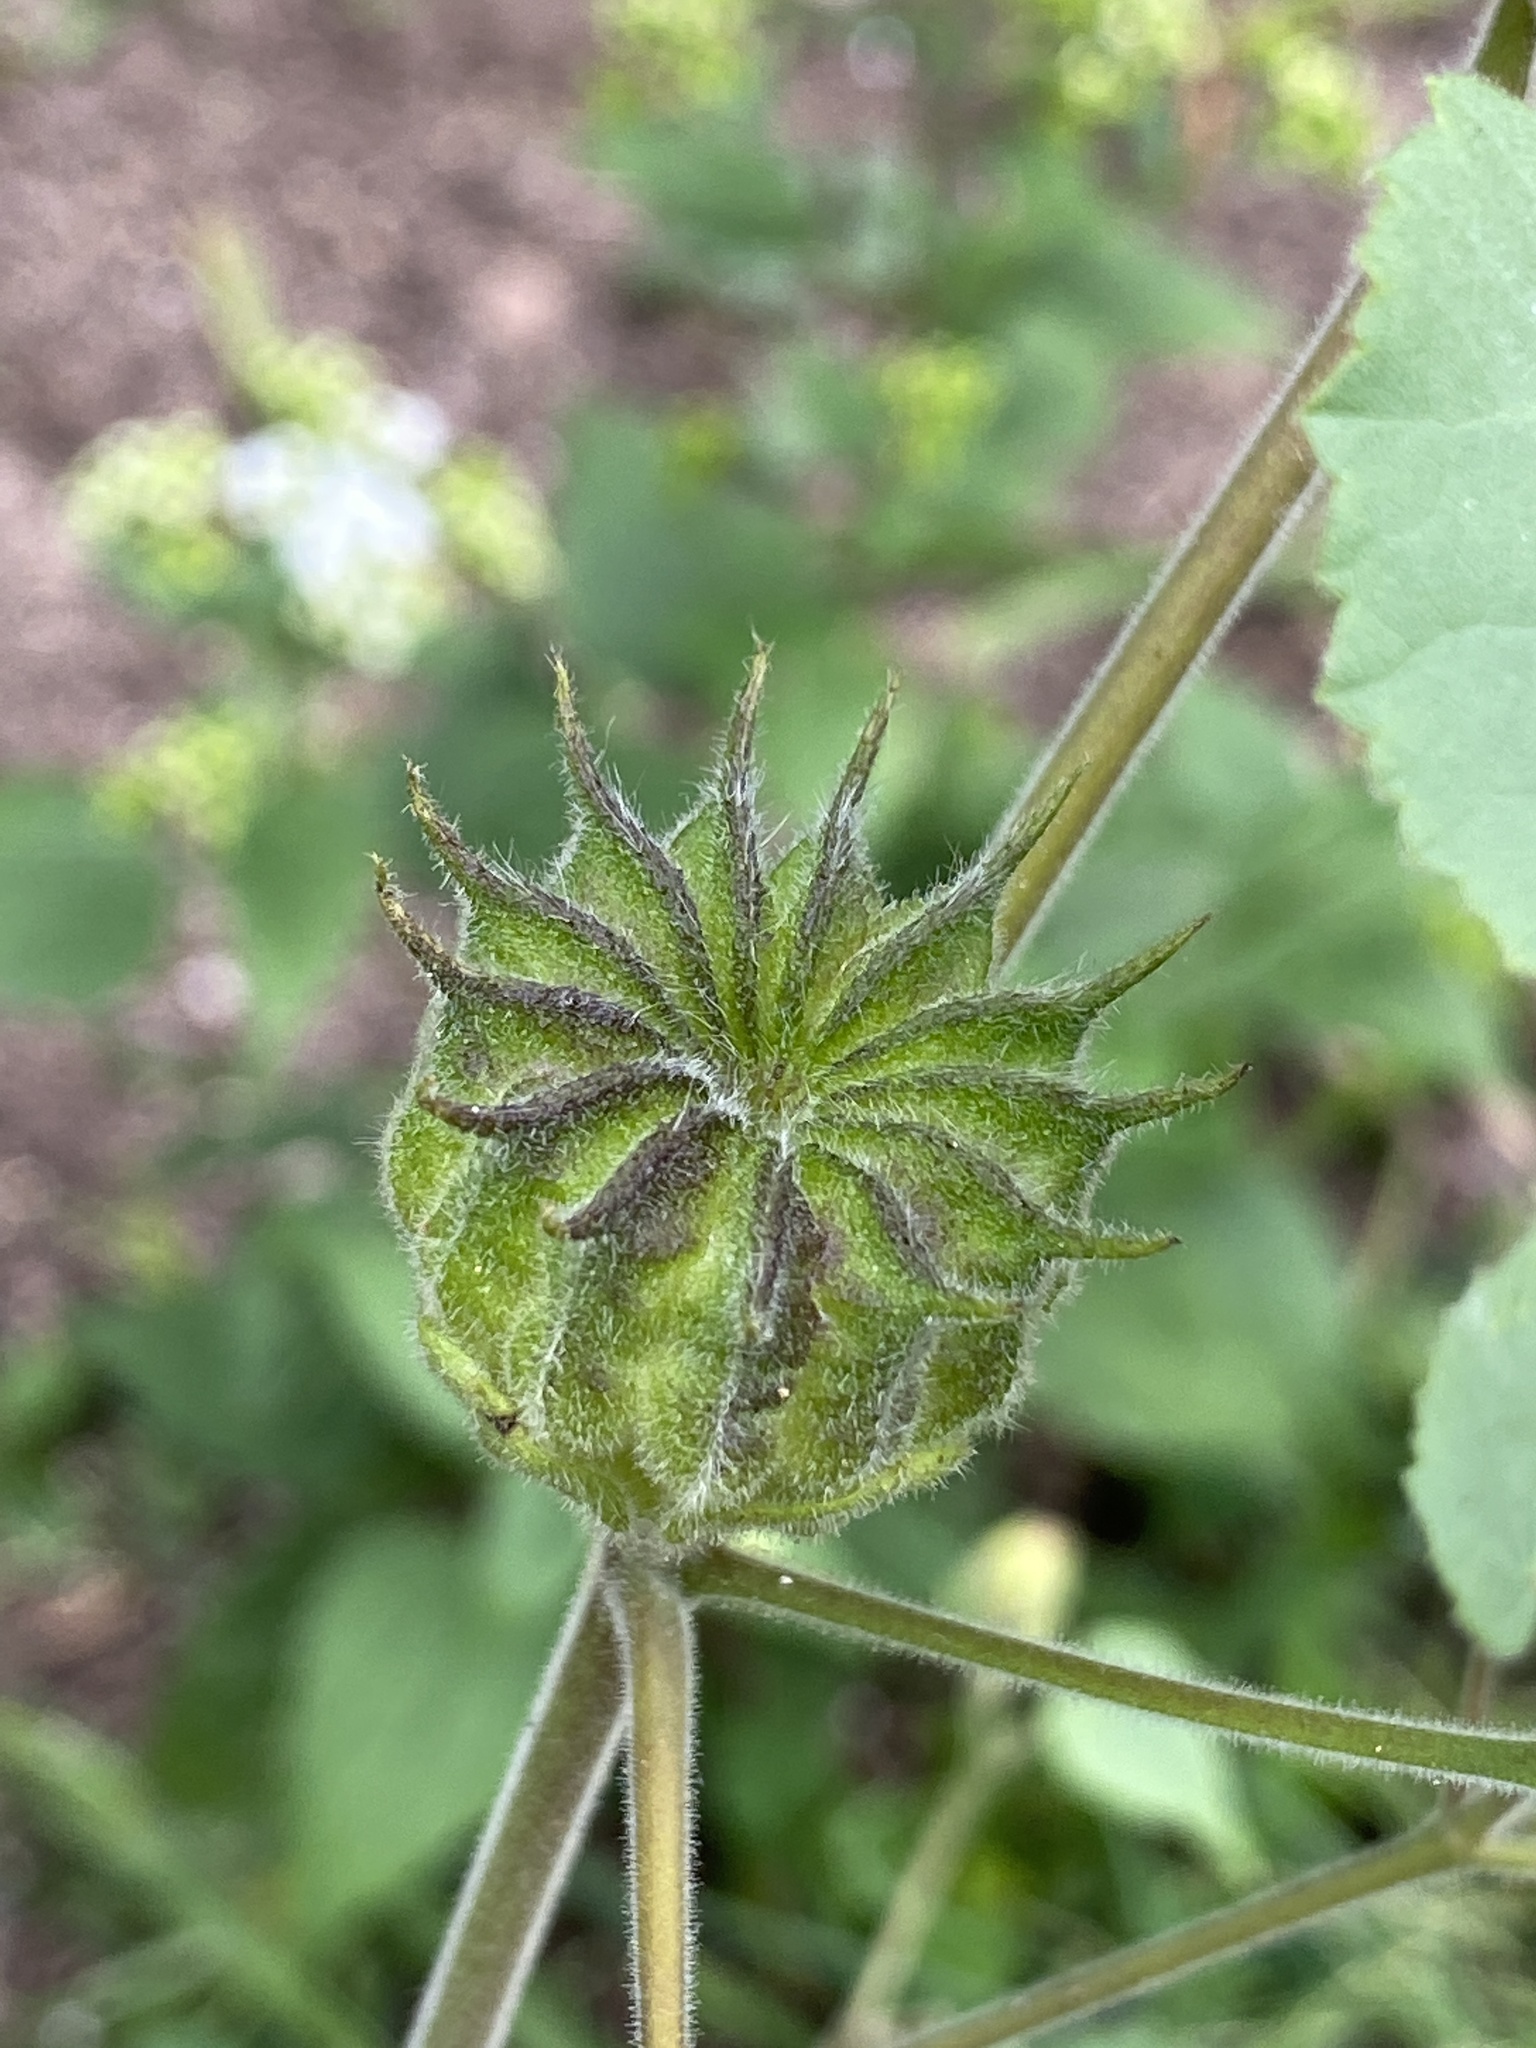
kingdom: Plantae
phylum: Tracheophyta
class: Magnoliopsida
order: Malvales
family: Malvaceae
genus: Abutilon
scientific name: Abutilon theophrasti
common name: Velvetleaf
